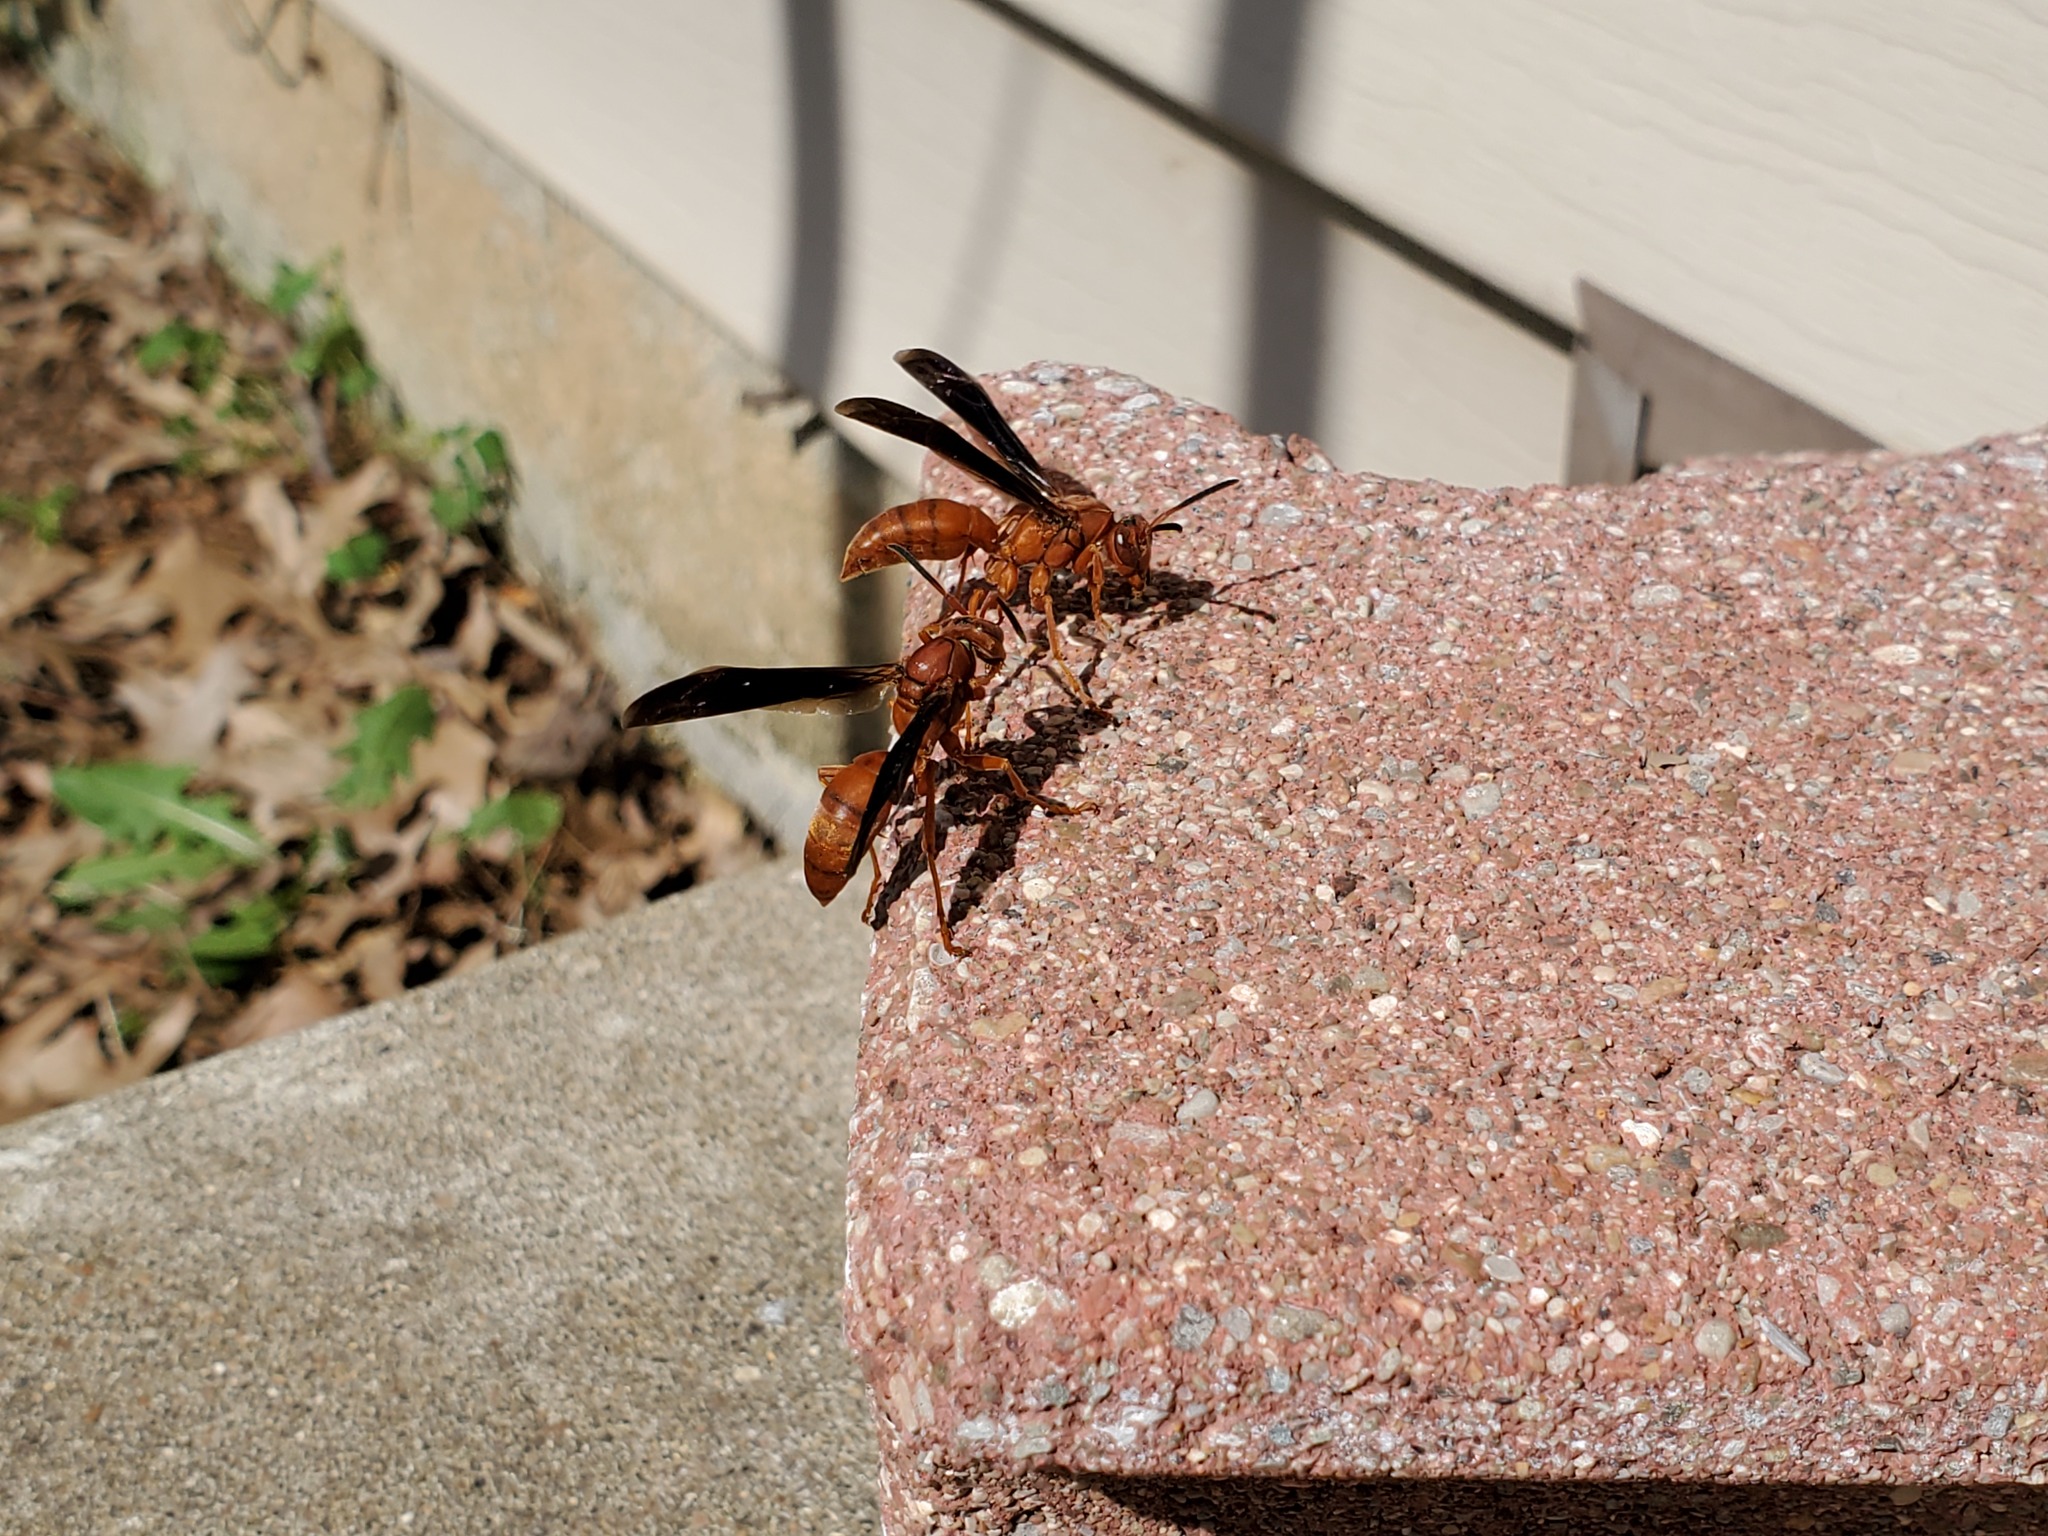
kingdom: Animalia
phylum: Arthropoda
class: Insecta
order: Hymenoptera
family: Vespidae
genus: Fuscopolistes
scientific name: Fuscopolistes
